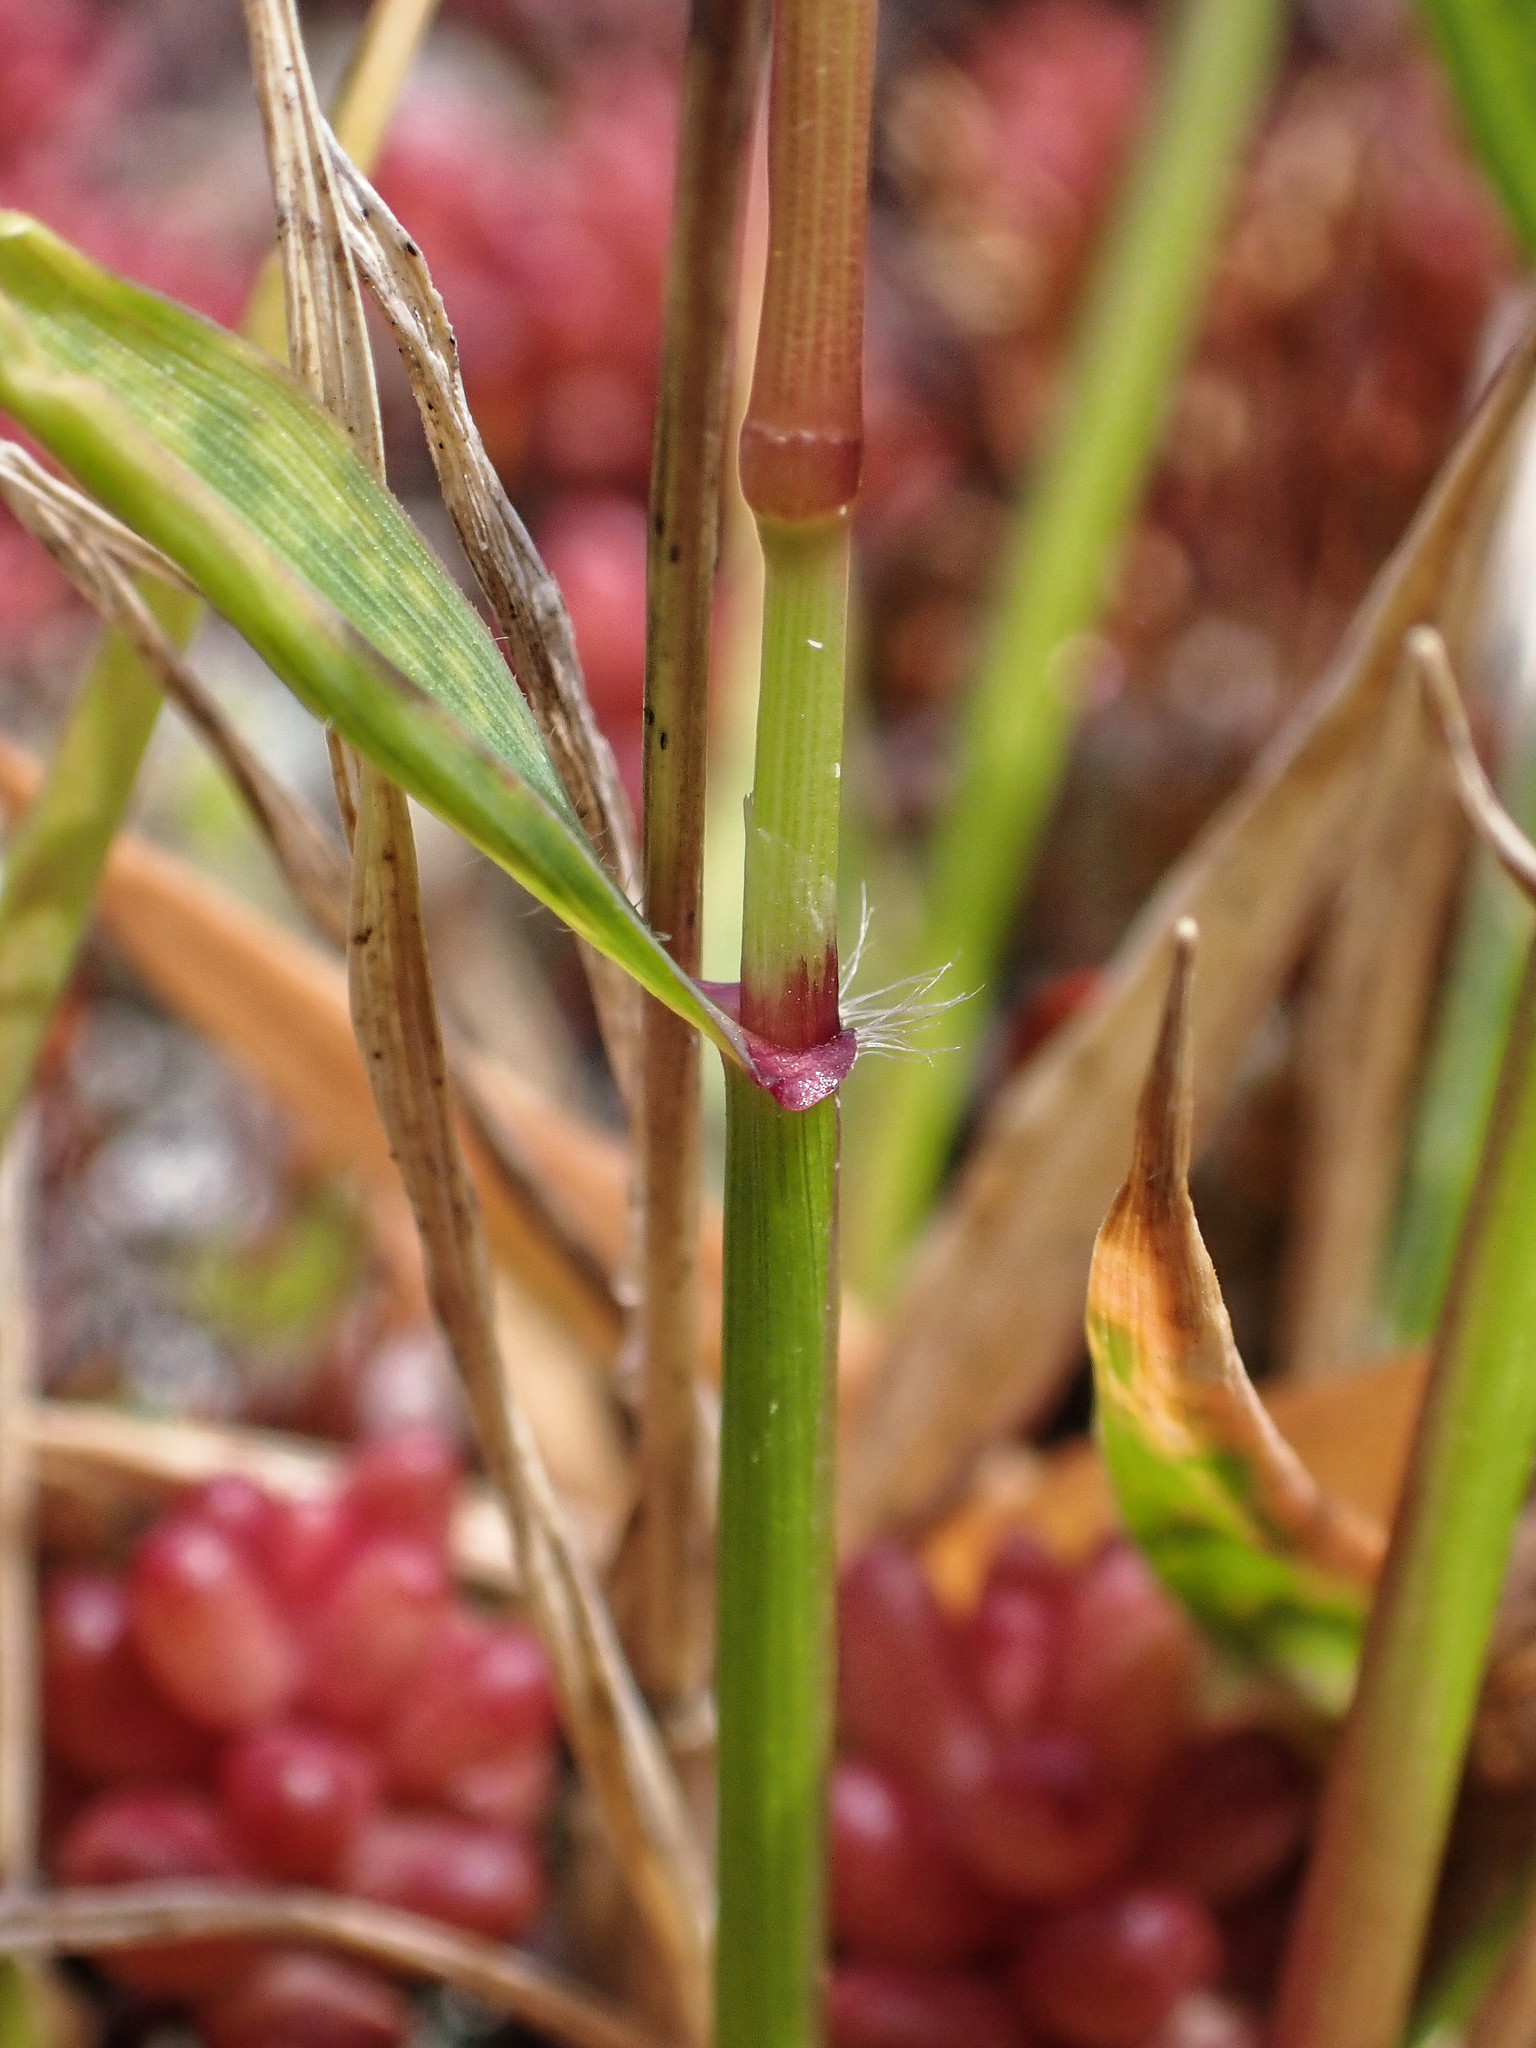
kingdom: Plantae
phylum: Tracheophyta
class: Liliopsida
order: Poales
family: Poaceae
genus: Anthoxanthum
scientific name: Anthoxanthum odoratum
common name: Sweet vernalgrass
